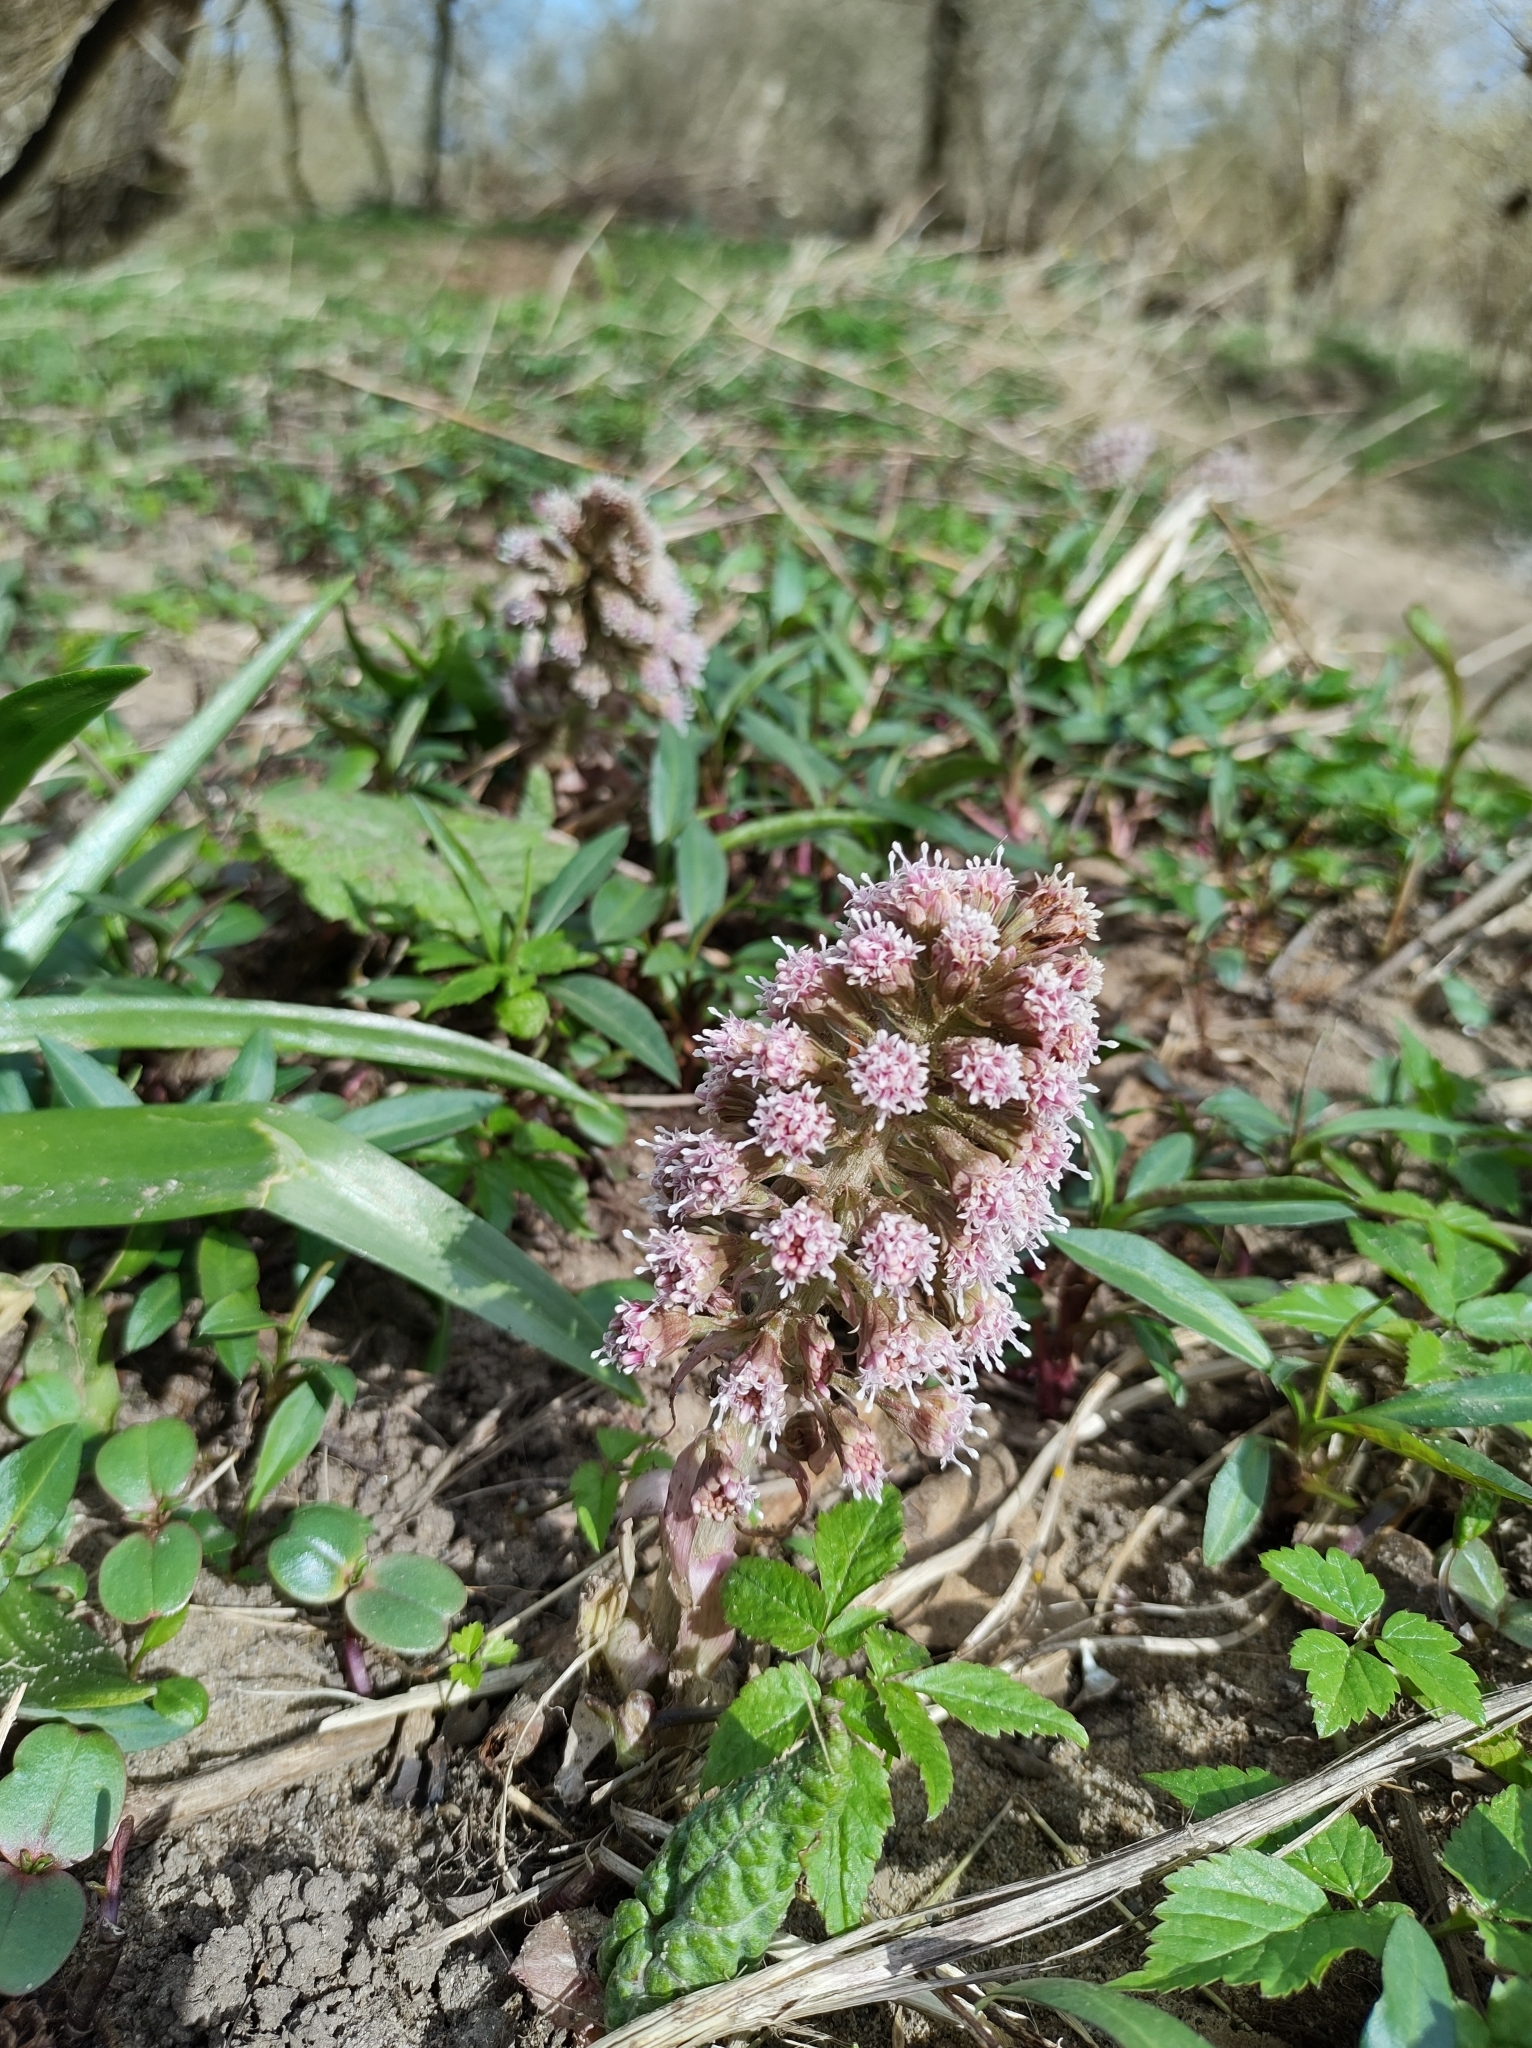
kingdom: Plantae
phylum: Tracheophyta
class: Magnoliopsida
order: Asterales
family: Asteraceae
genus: Petasites
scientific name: Petasites hybridus
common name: Butterbur
